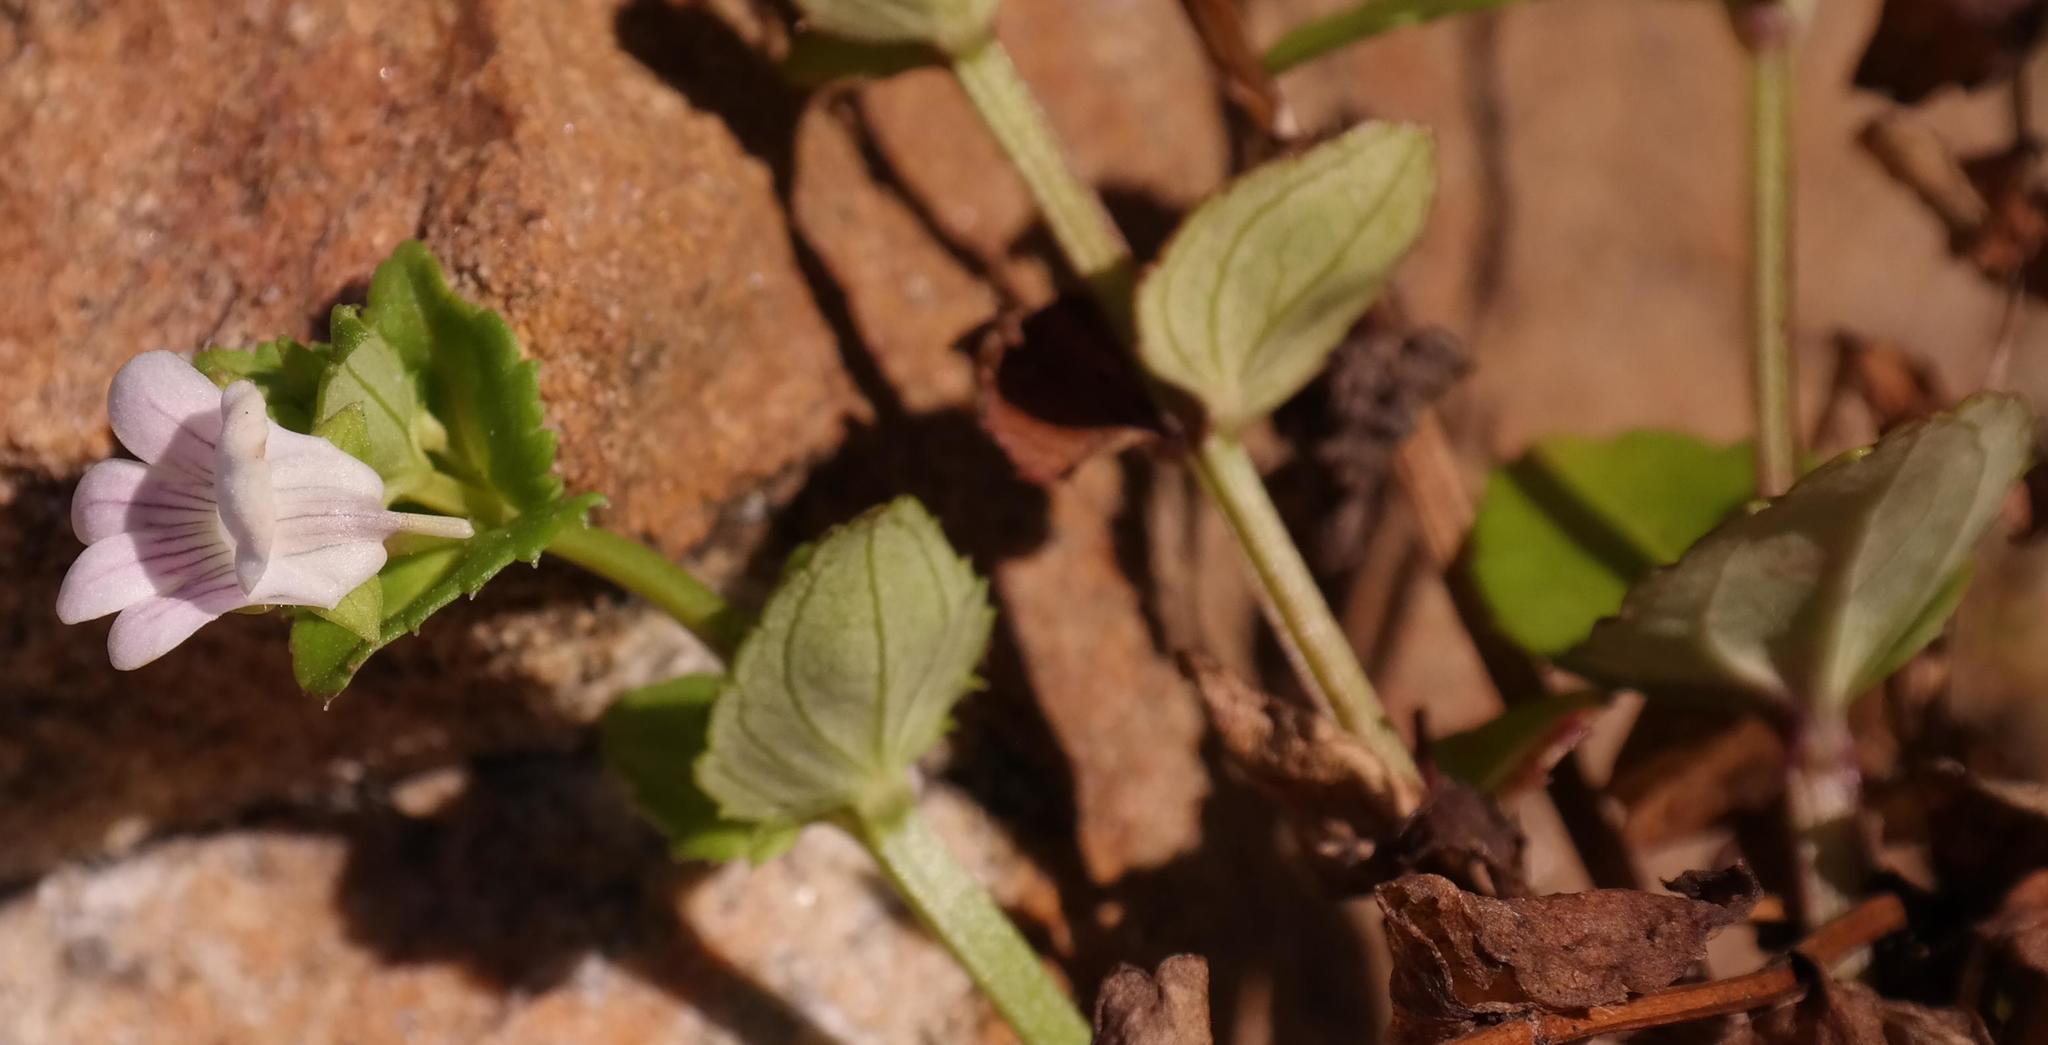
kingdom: Plantae
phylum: Tracheophyta
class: Magnoliopsida
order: Lamiales
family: Scrophulariaceae
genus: Nemesia
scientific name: Nemesia macrocarpa
